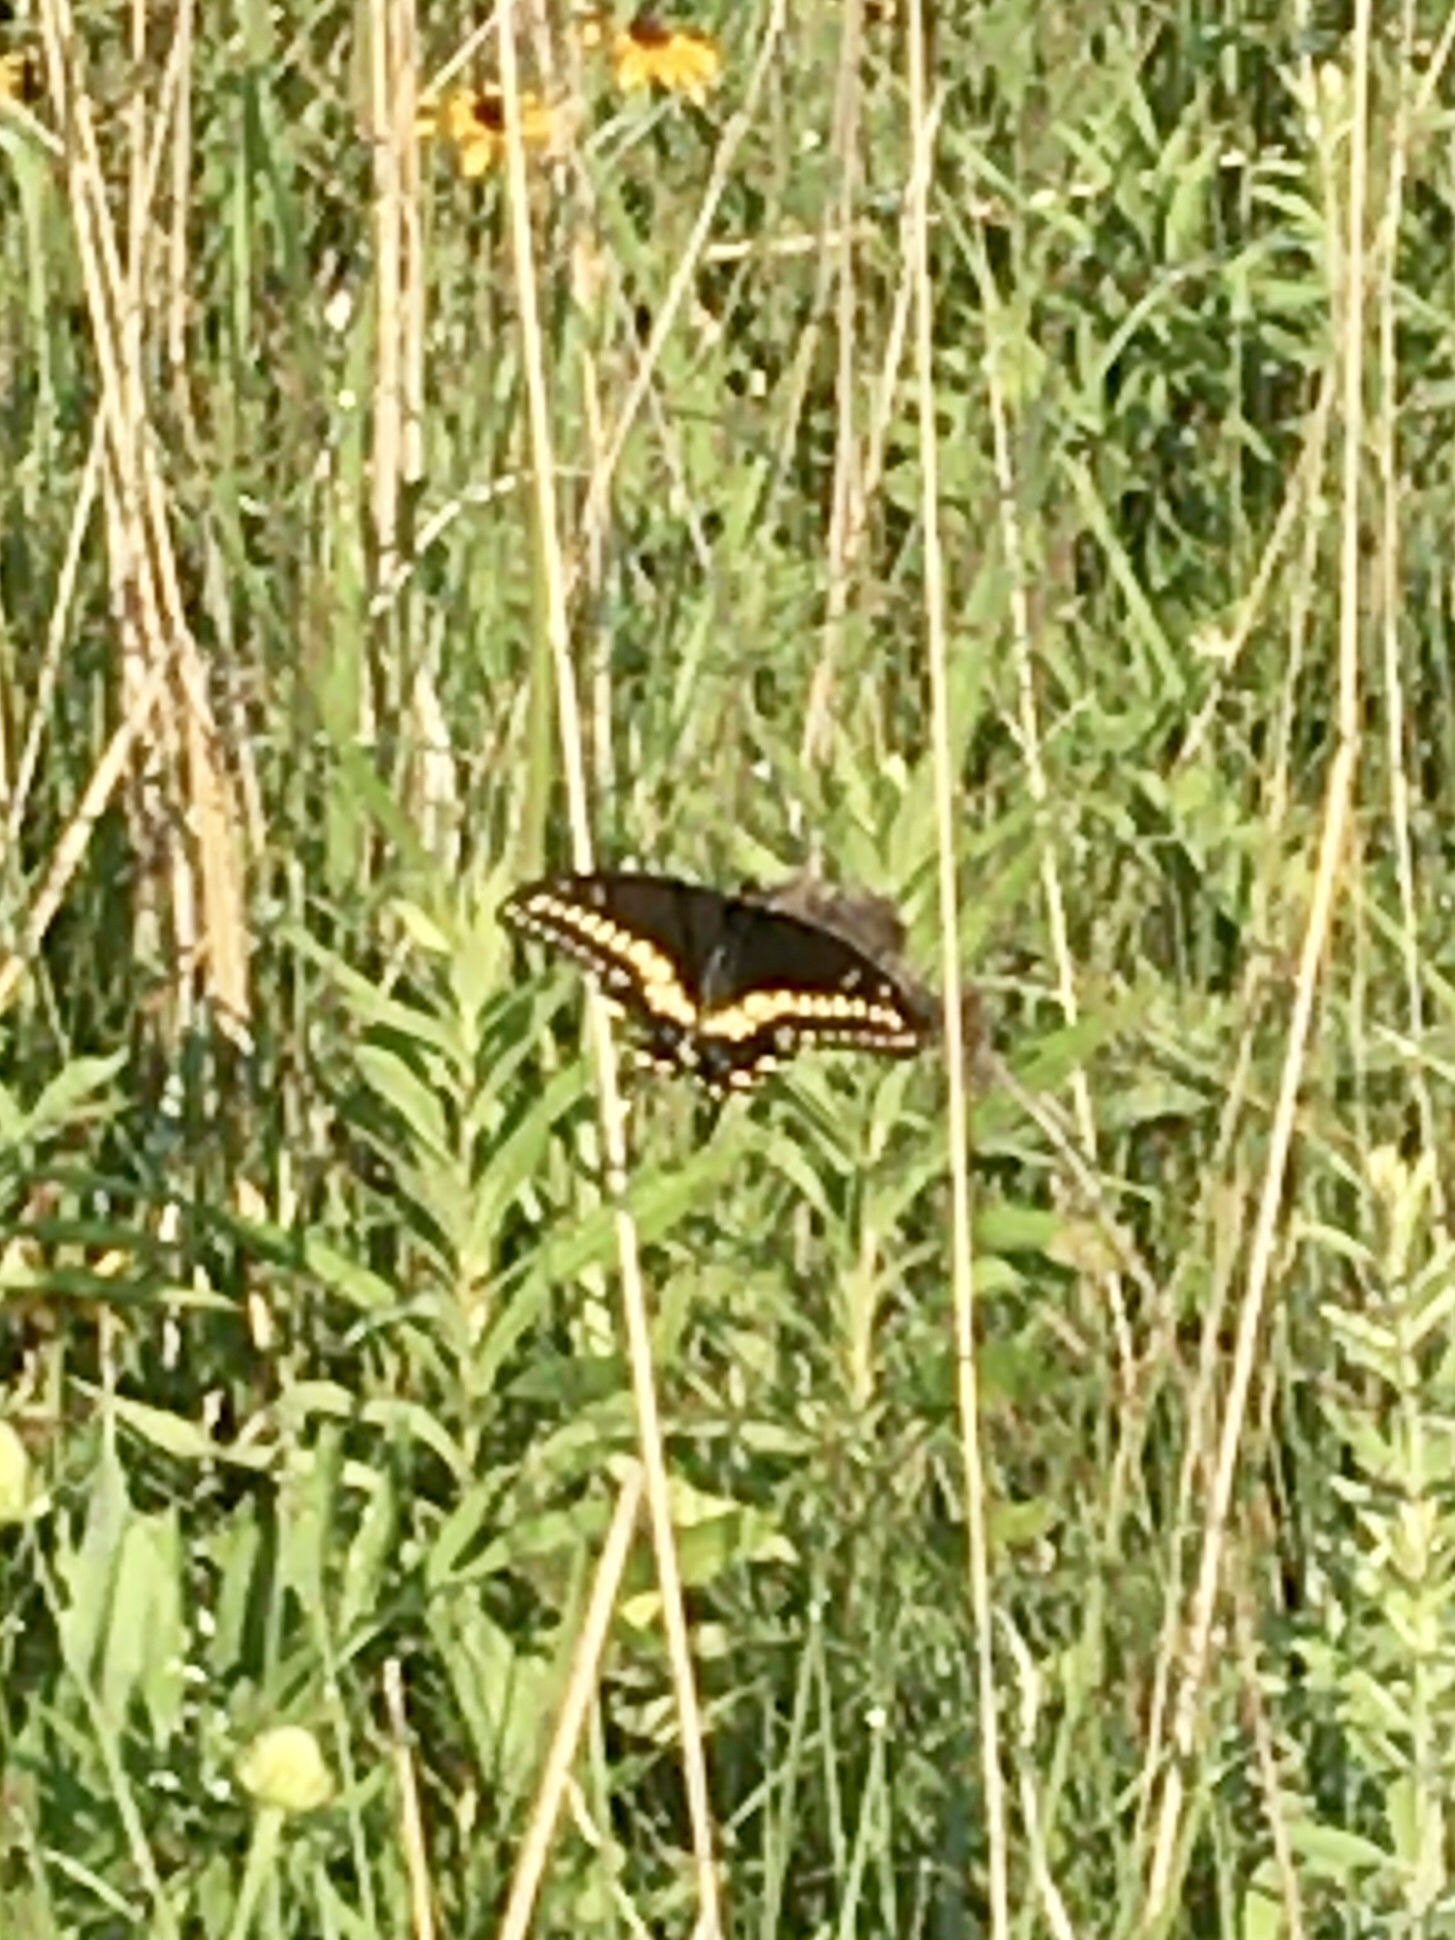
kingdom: Animalia
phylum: Arthropoda
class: Insecta
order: Lepidoptera
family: Papilionidae
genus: Papilio
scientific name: Papilio polyxenes
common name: Black swallowtail
